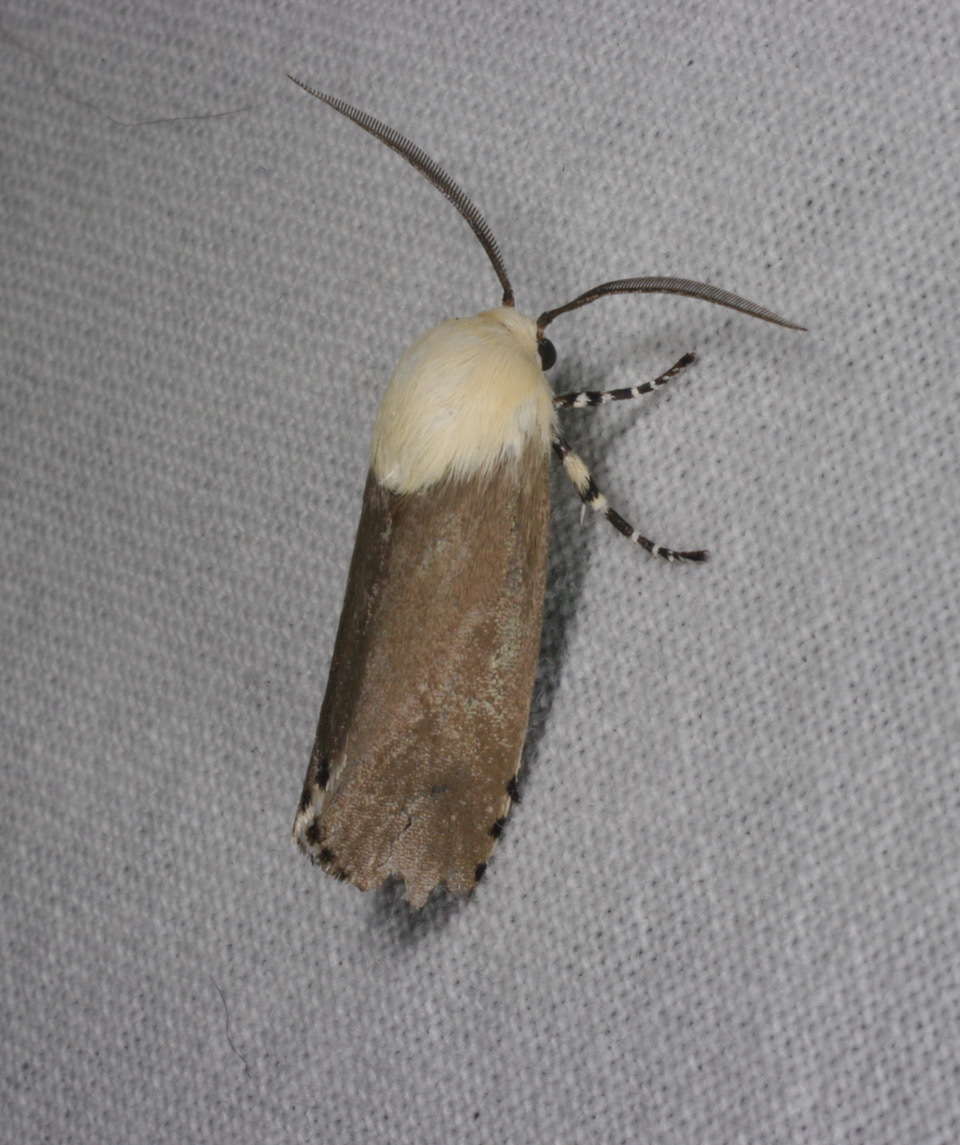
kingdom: Animalia
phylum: Arthropoda
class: Insecta
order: Lepidoptera
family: Xyloryctidae
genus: Cryptophasa
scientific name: Cryptophasa sacerdos
